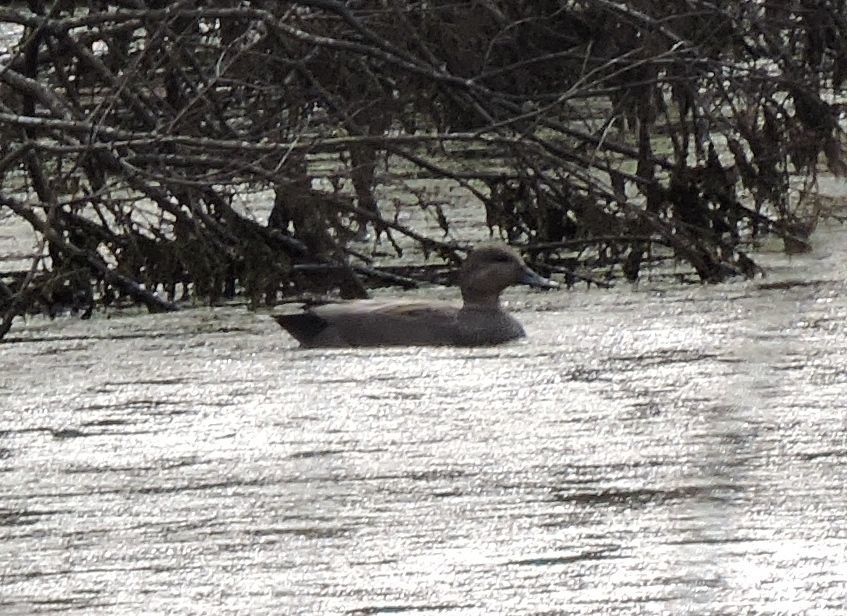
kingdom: Animalia
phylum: Chordata
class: Aves
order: Anseriformes
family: Anatidae
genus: Mareca
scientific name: Mareca strepera
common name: Gadwall
